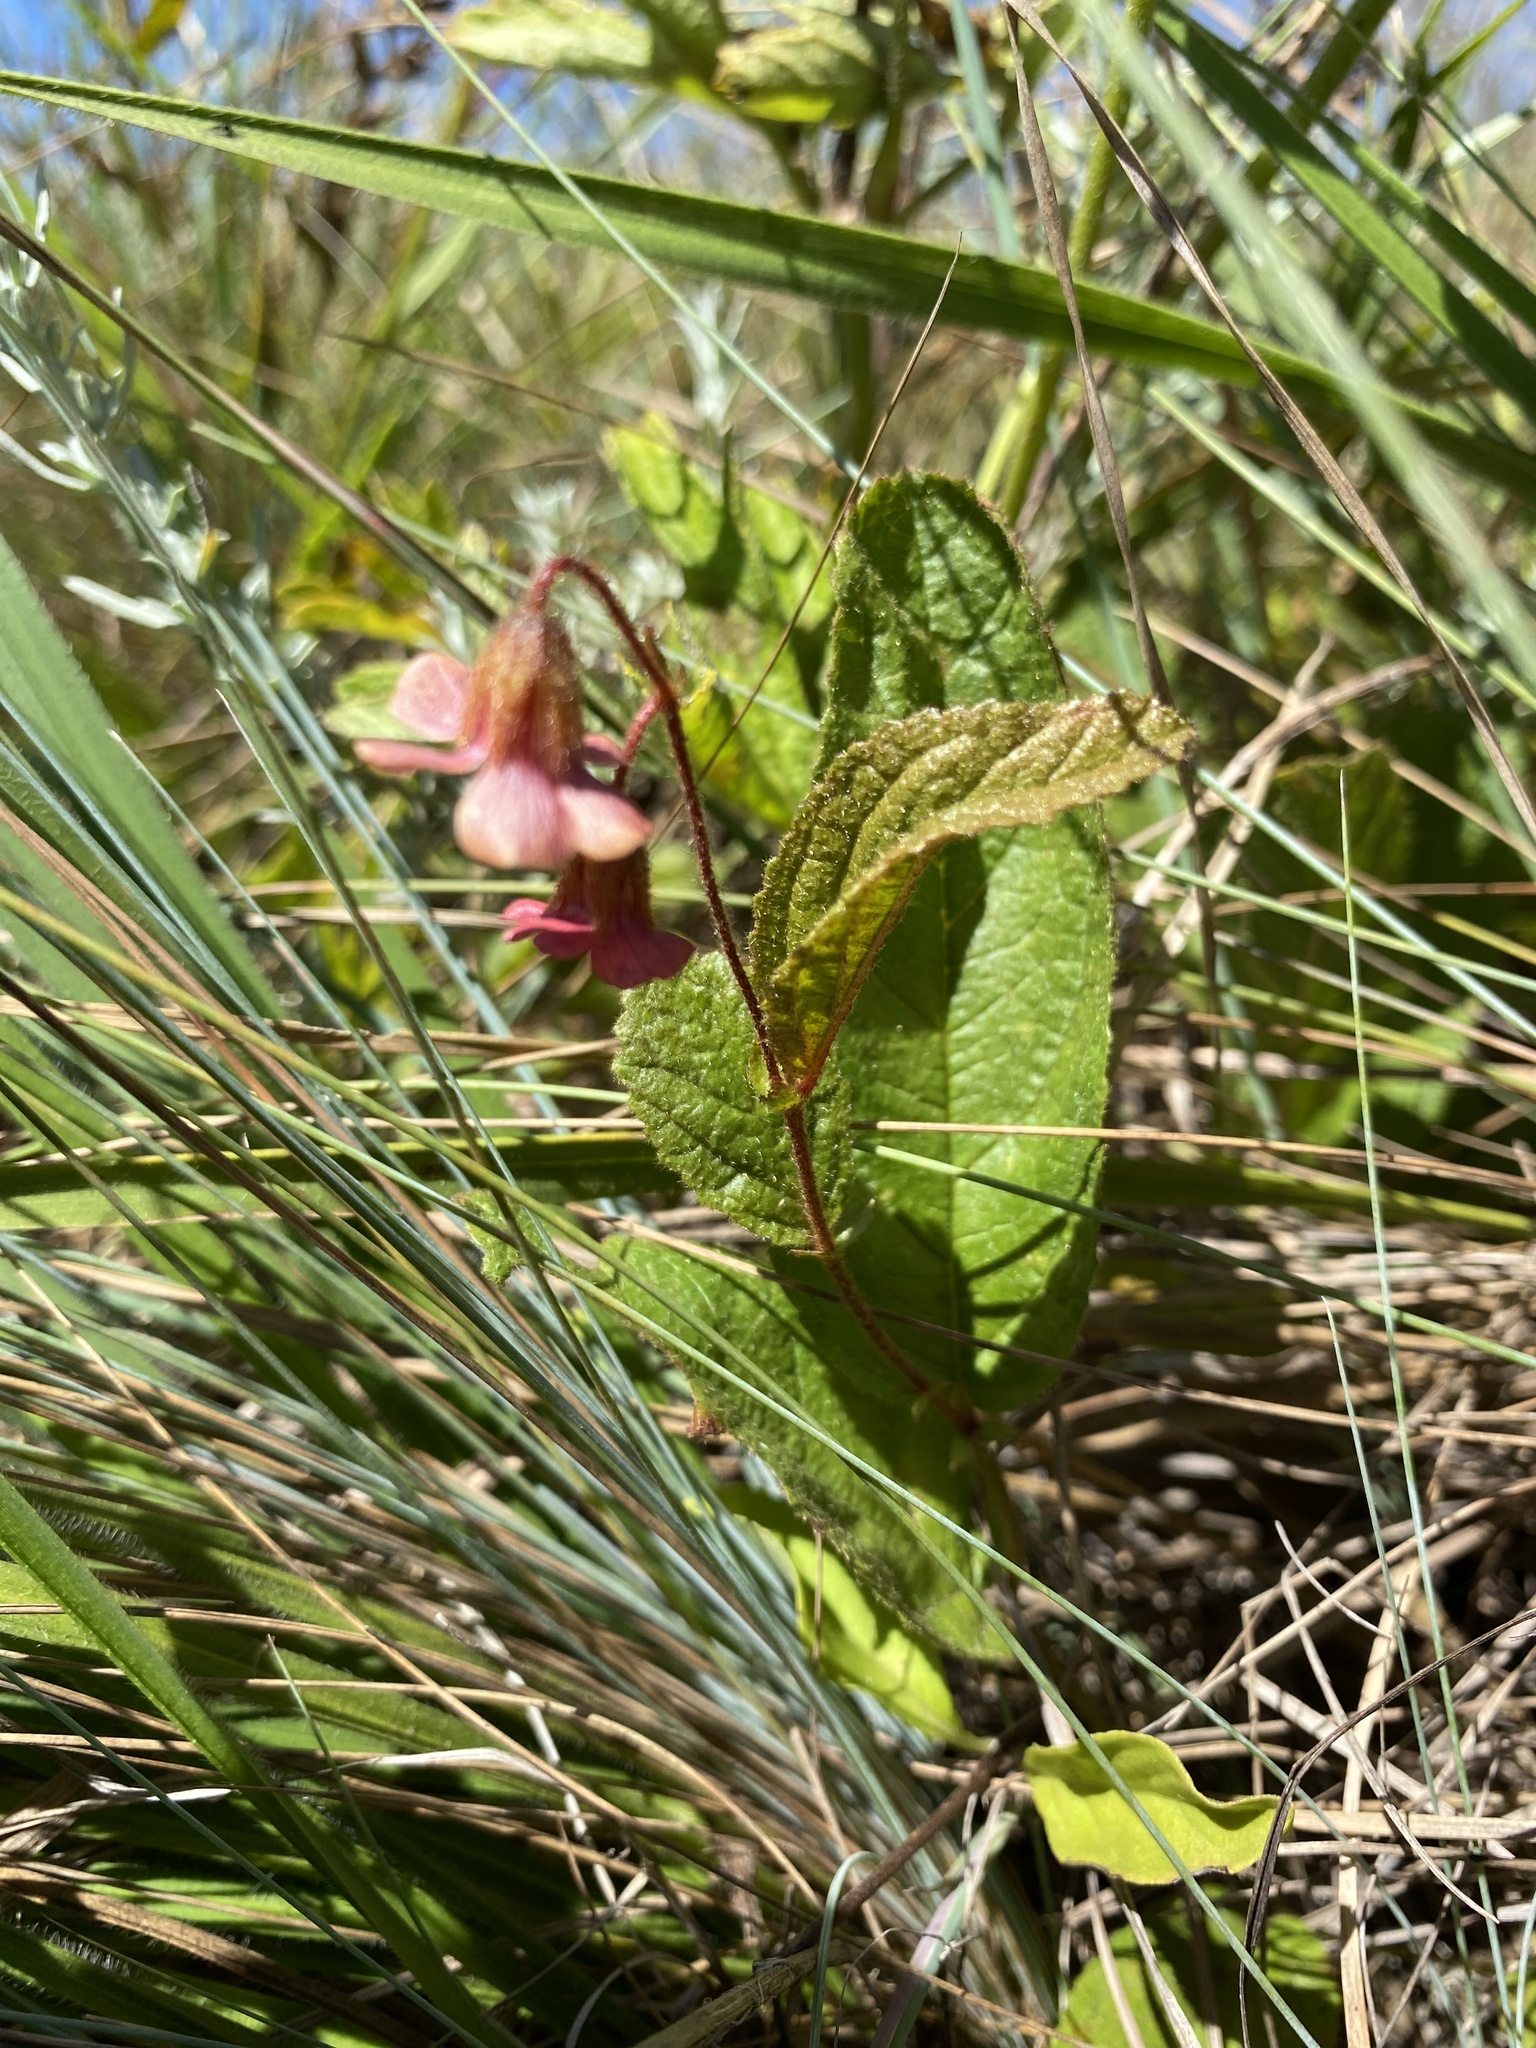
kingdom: Plantae
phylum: Tracheophyta
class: Magnoliopsida
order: Malvales
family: Malvaceae
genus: Hermannia
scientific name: Hermannia woodii
